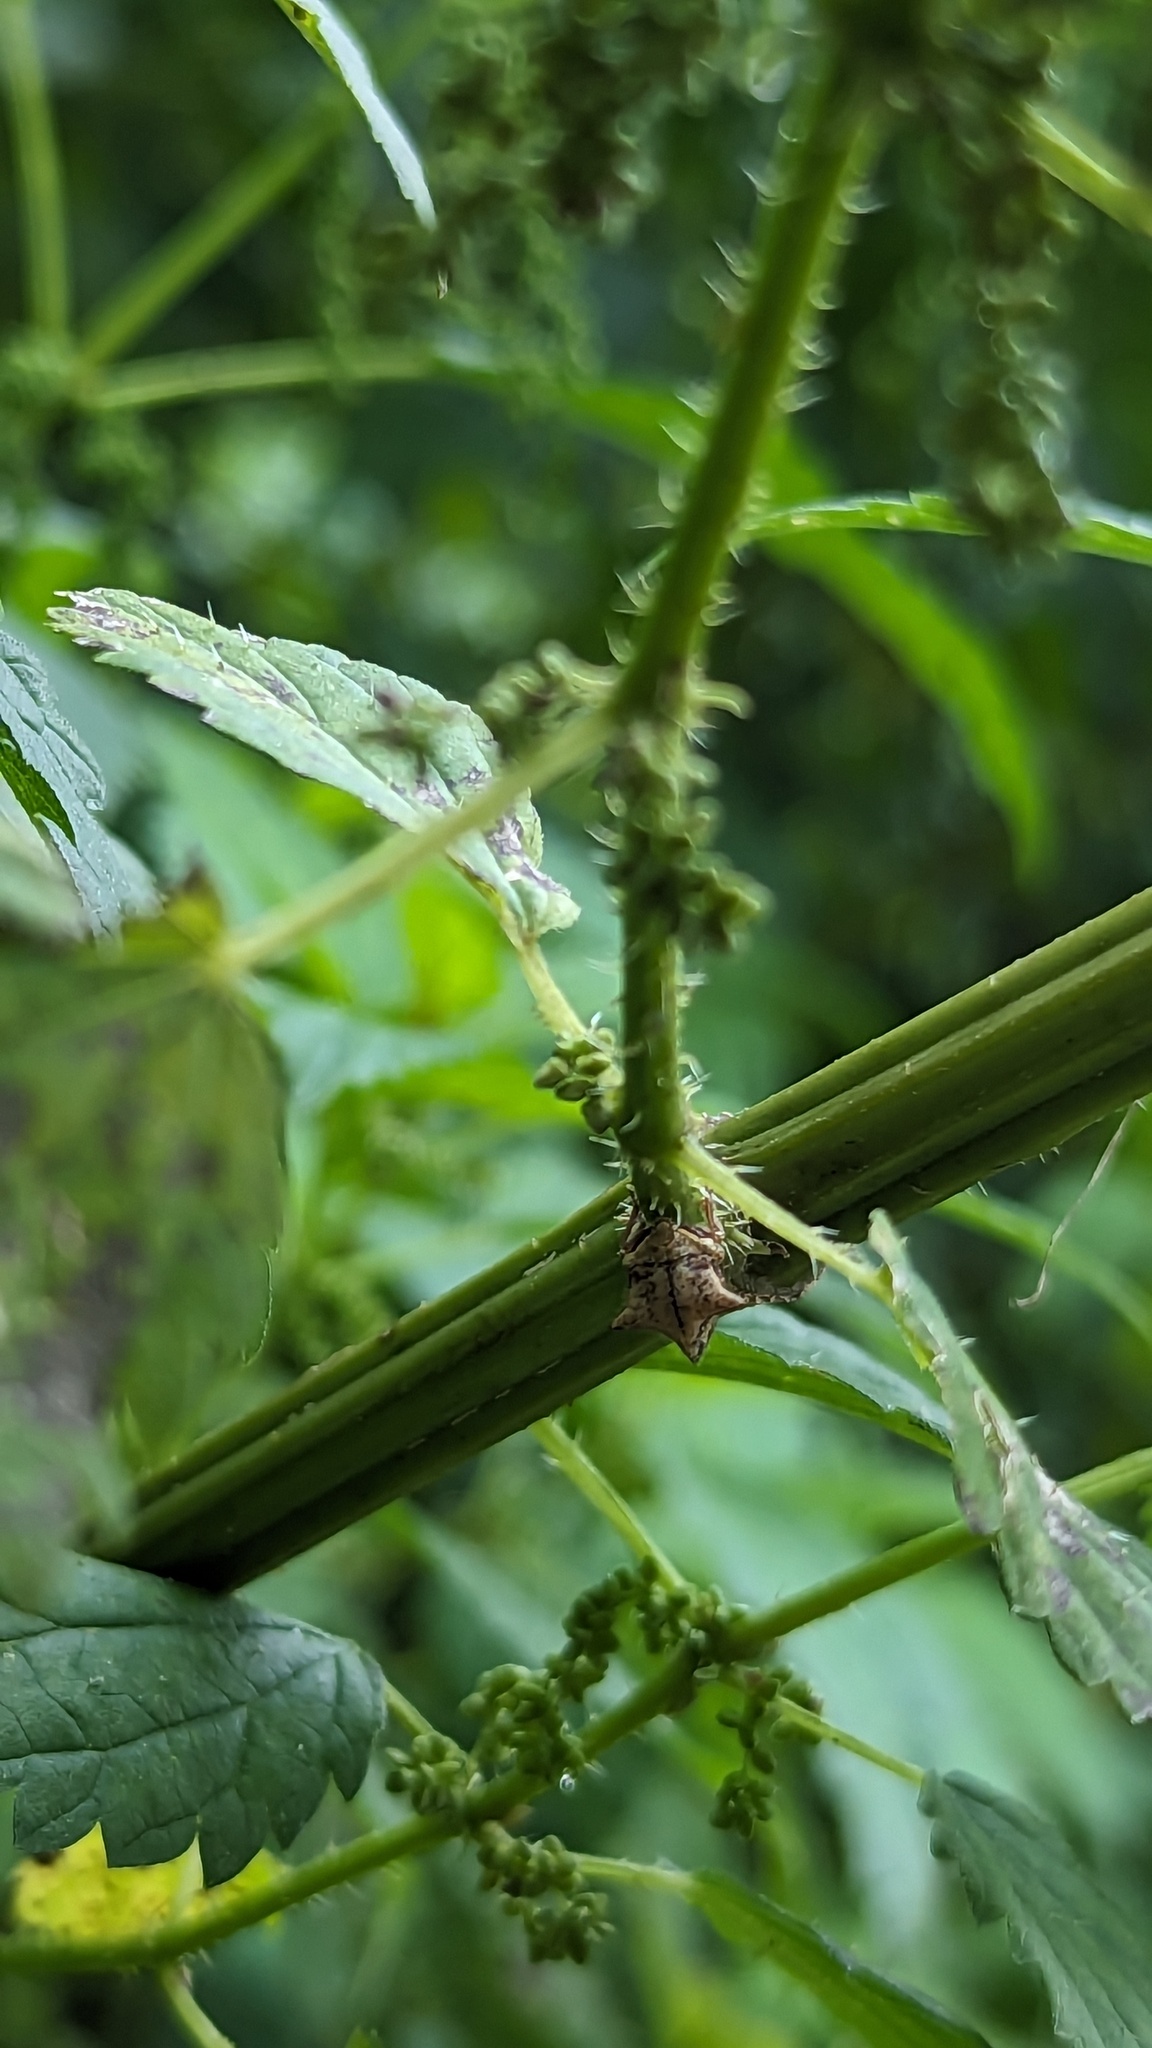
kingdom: Animalia
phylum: Arthropoda
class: Insecta
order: Hemiptera
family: Membracidae
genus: Stictocephala
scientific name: Stictocephala diceros
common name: Two-horned treehopper
